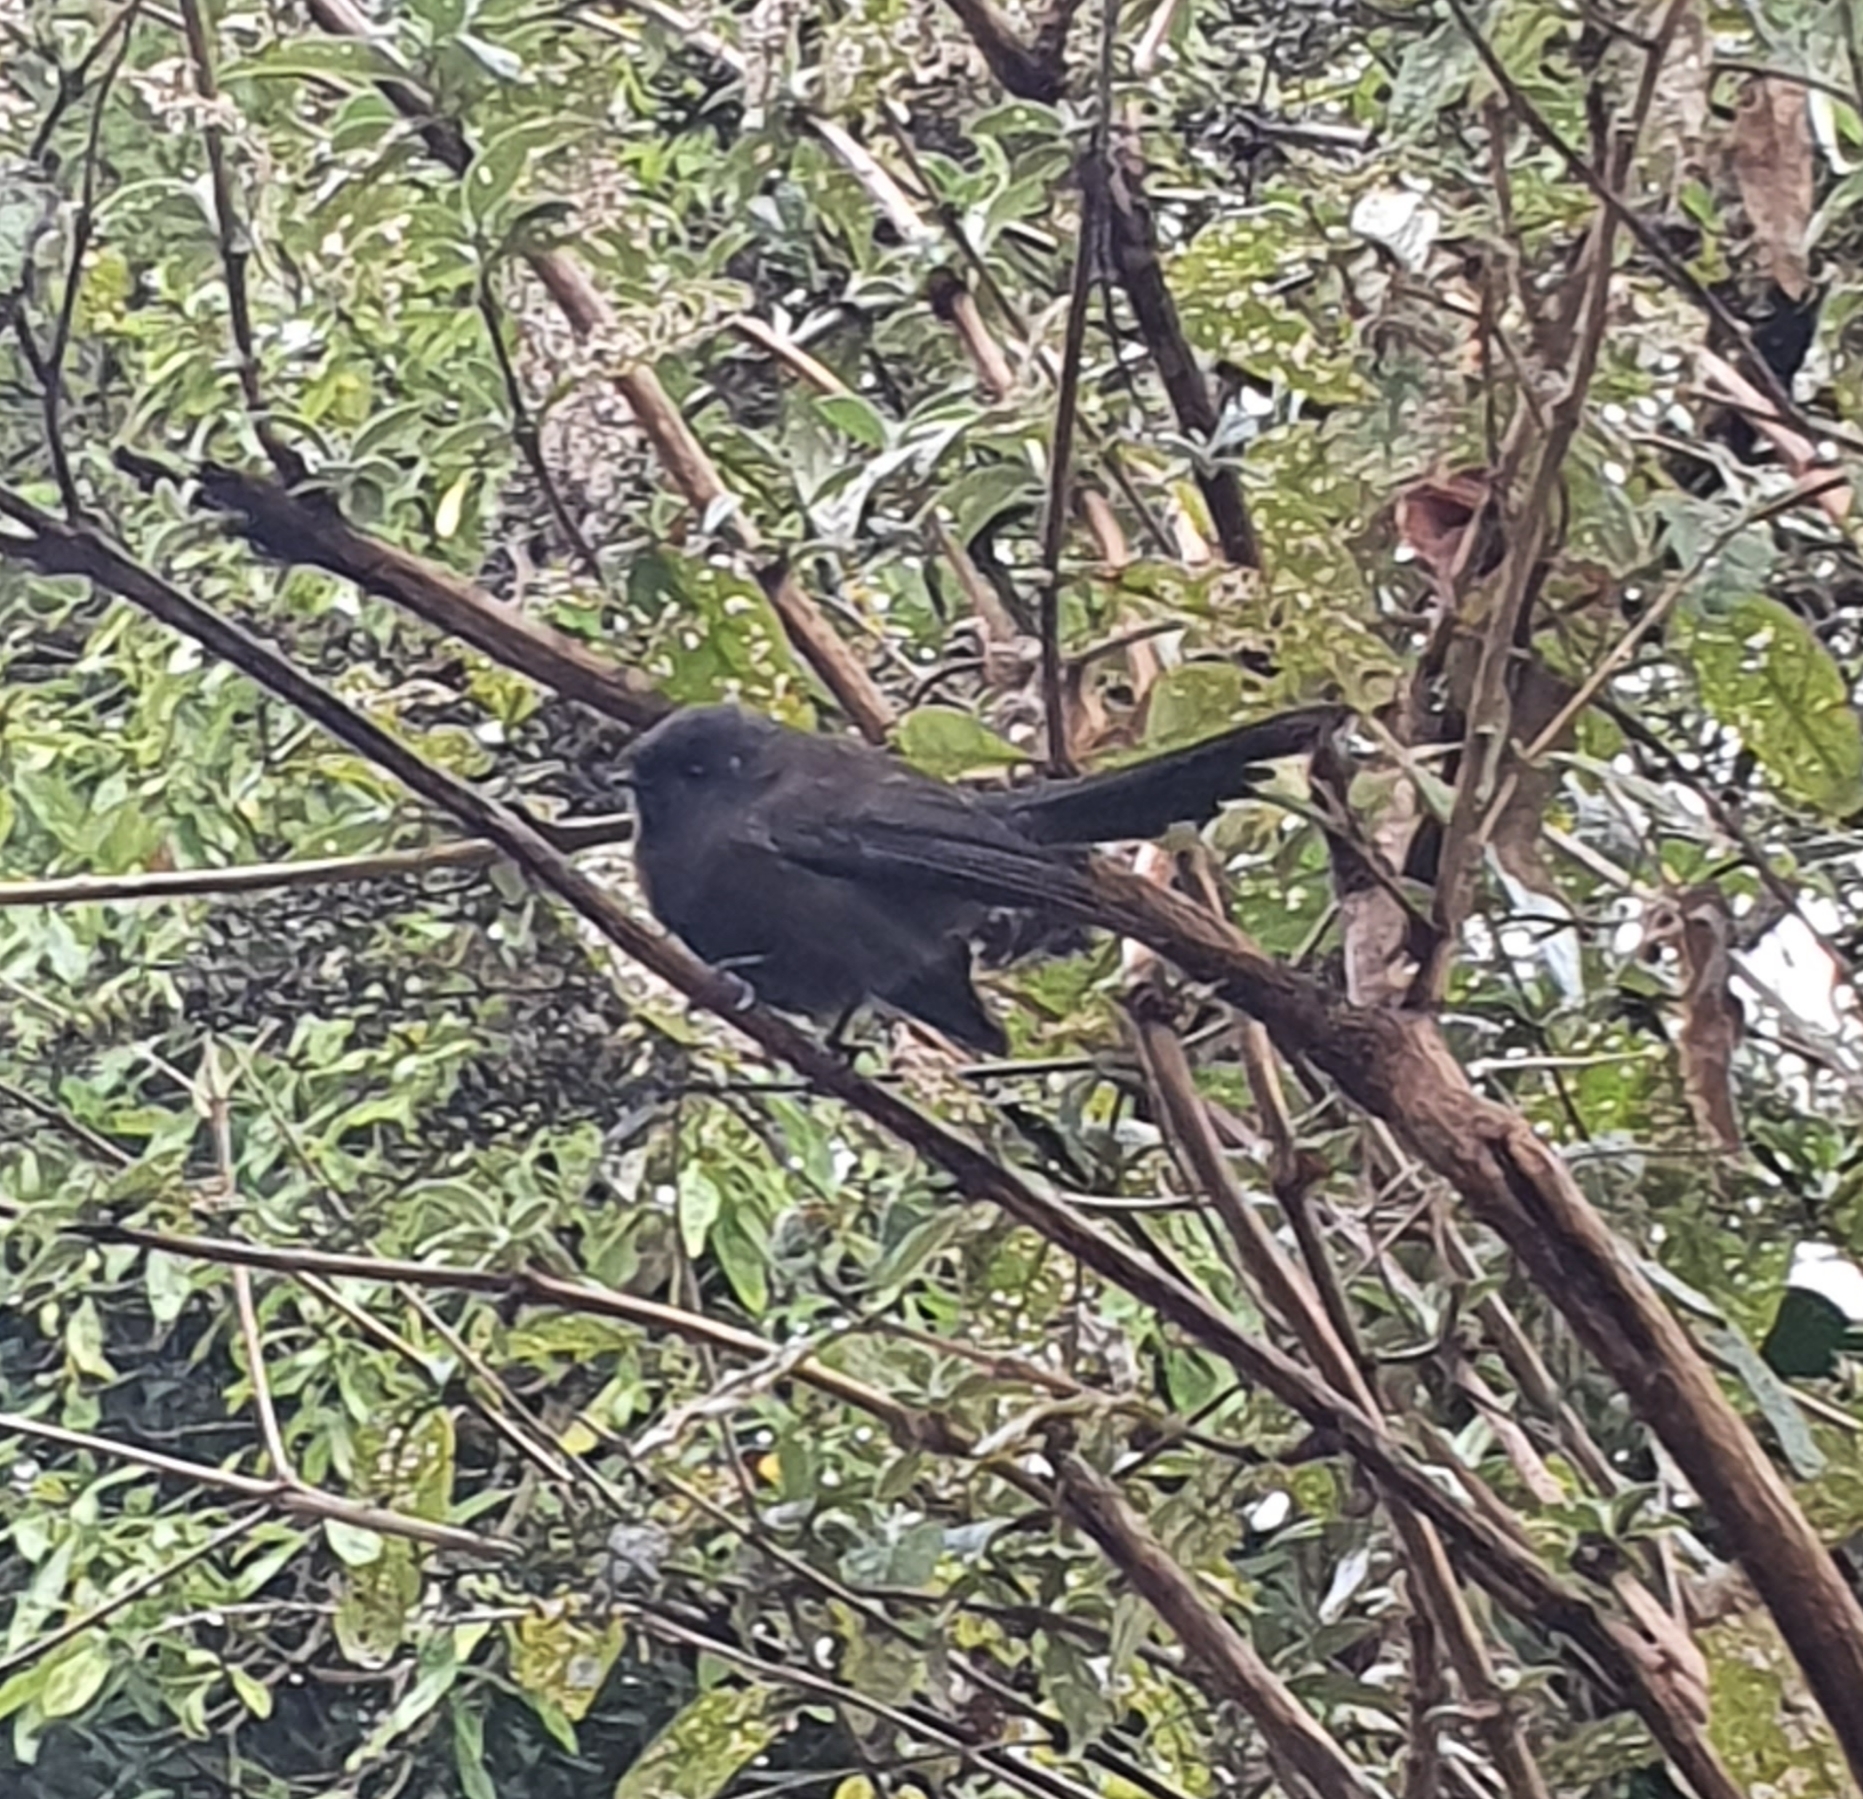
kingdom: Animalia
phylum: Chordata
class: Aves
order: Passeriformes
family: Rhipiduridae
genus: Rhipidura
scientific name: Rhipidura fuliginosa
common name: New zealand fantail
